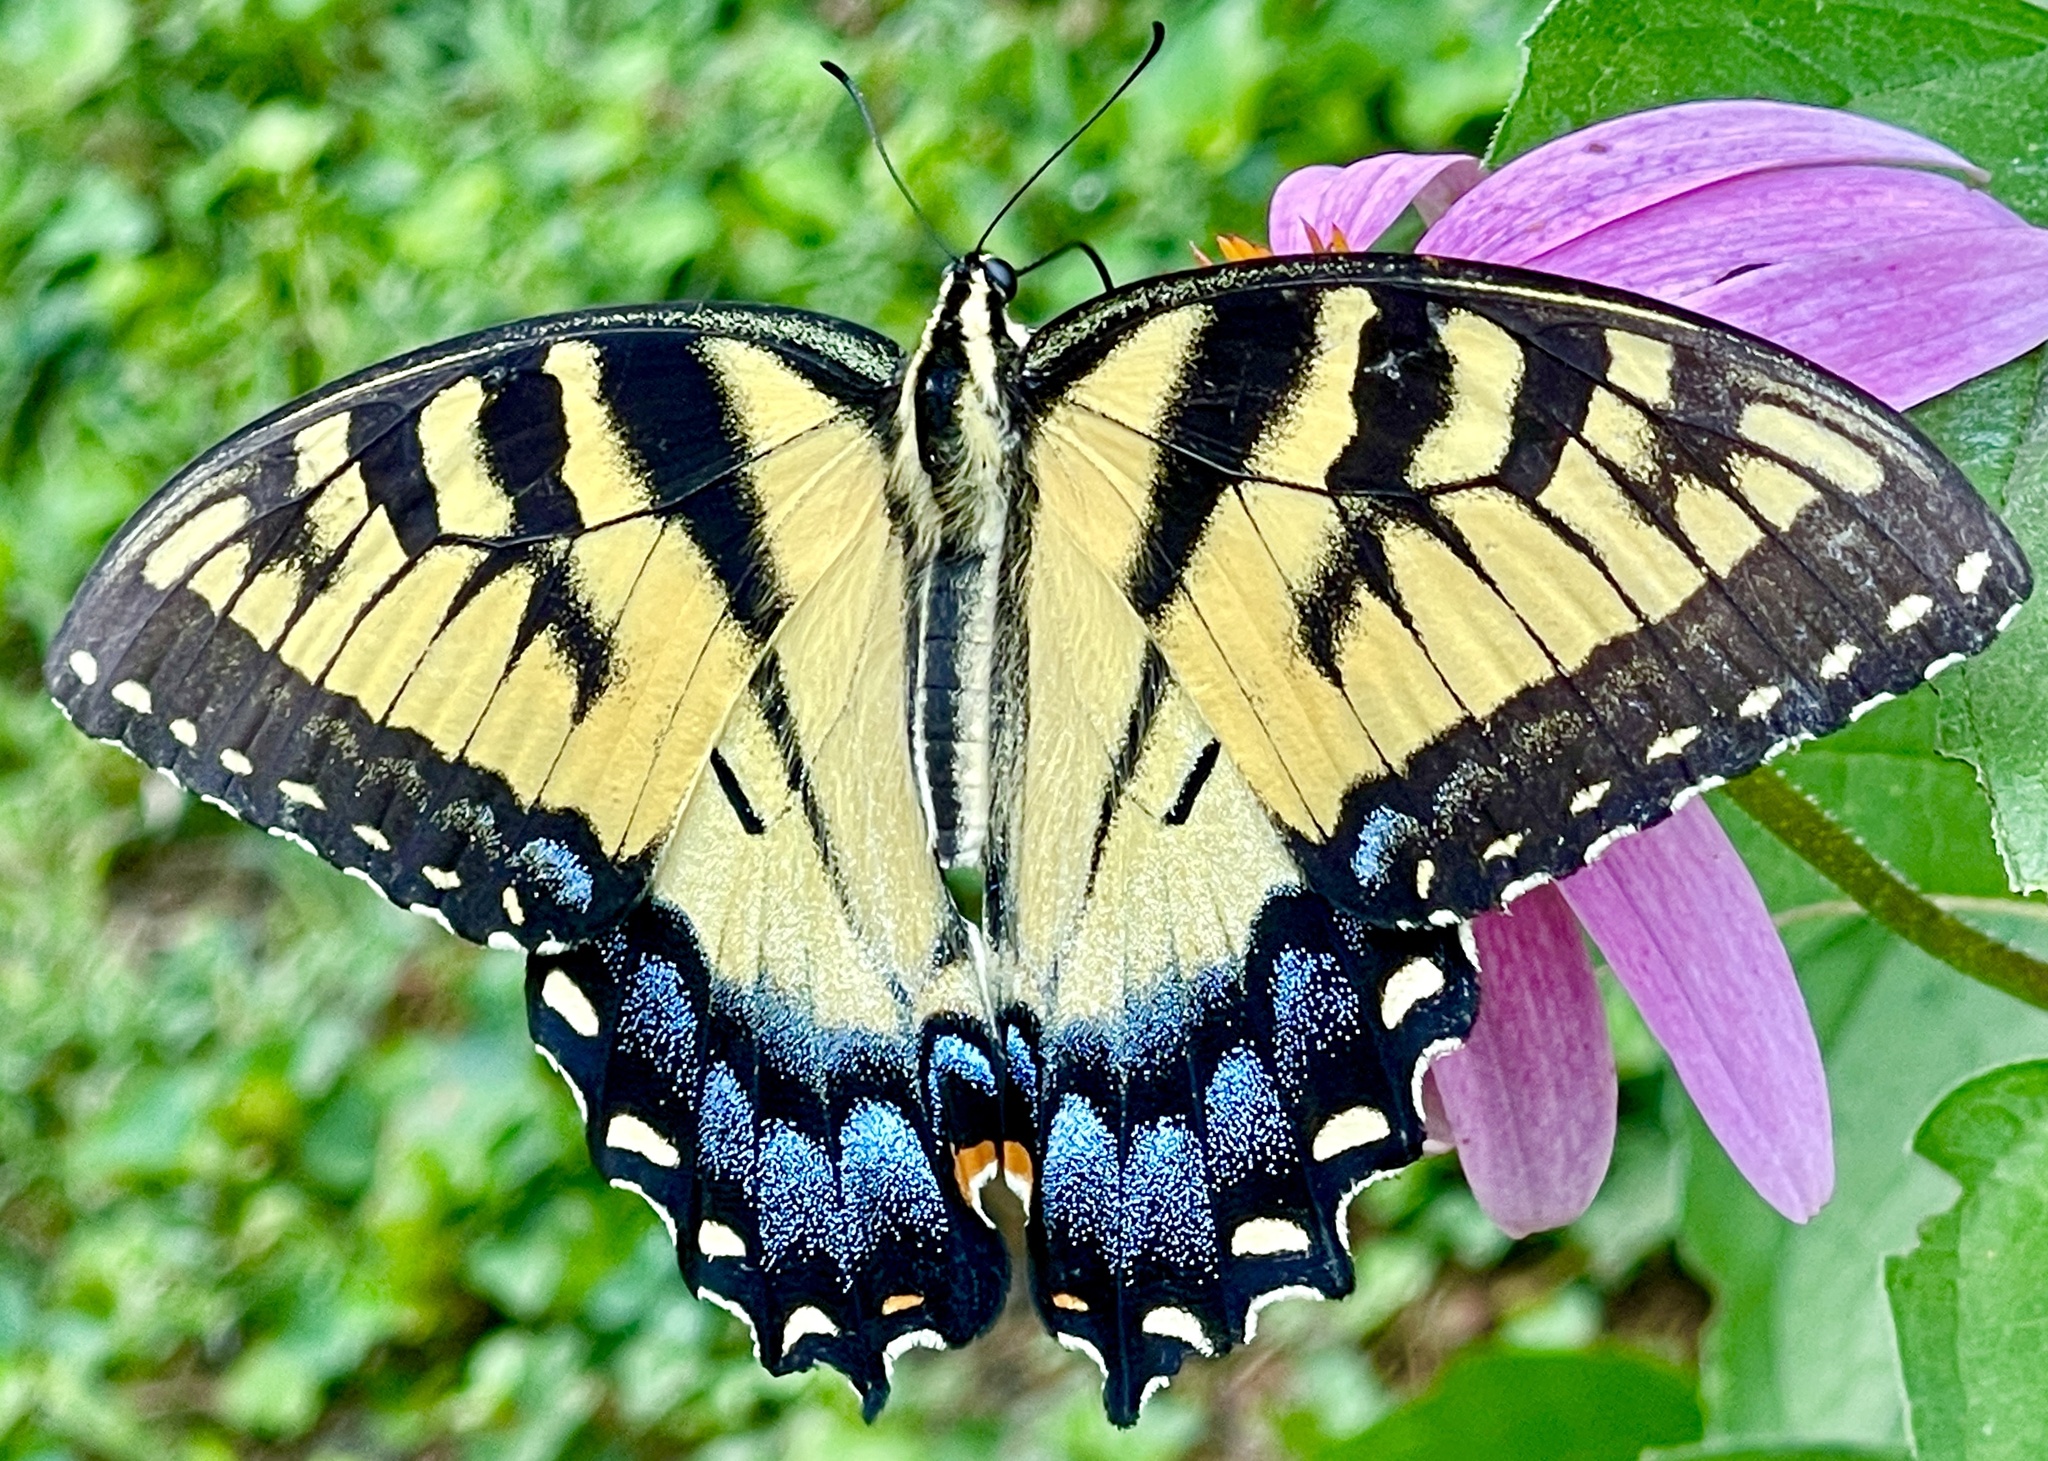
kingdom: Animalia
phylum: Arthropoda
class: Insecta
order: Lepidoptera
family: Papilionidae
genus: Papilio
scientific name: Papilio glaucus
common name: Tiger swallowtail
